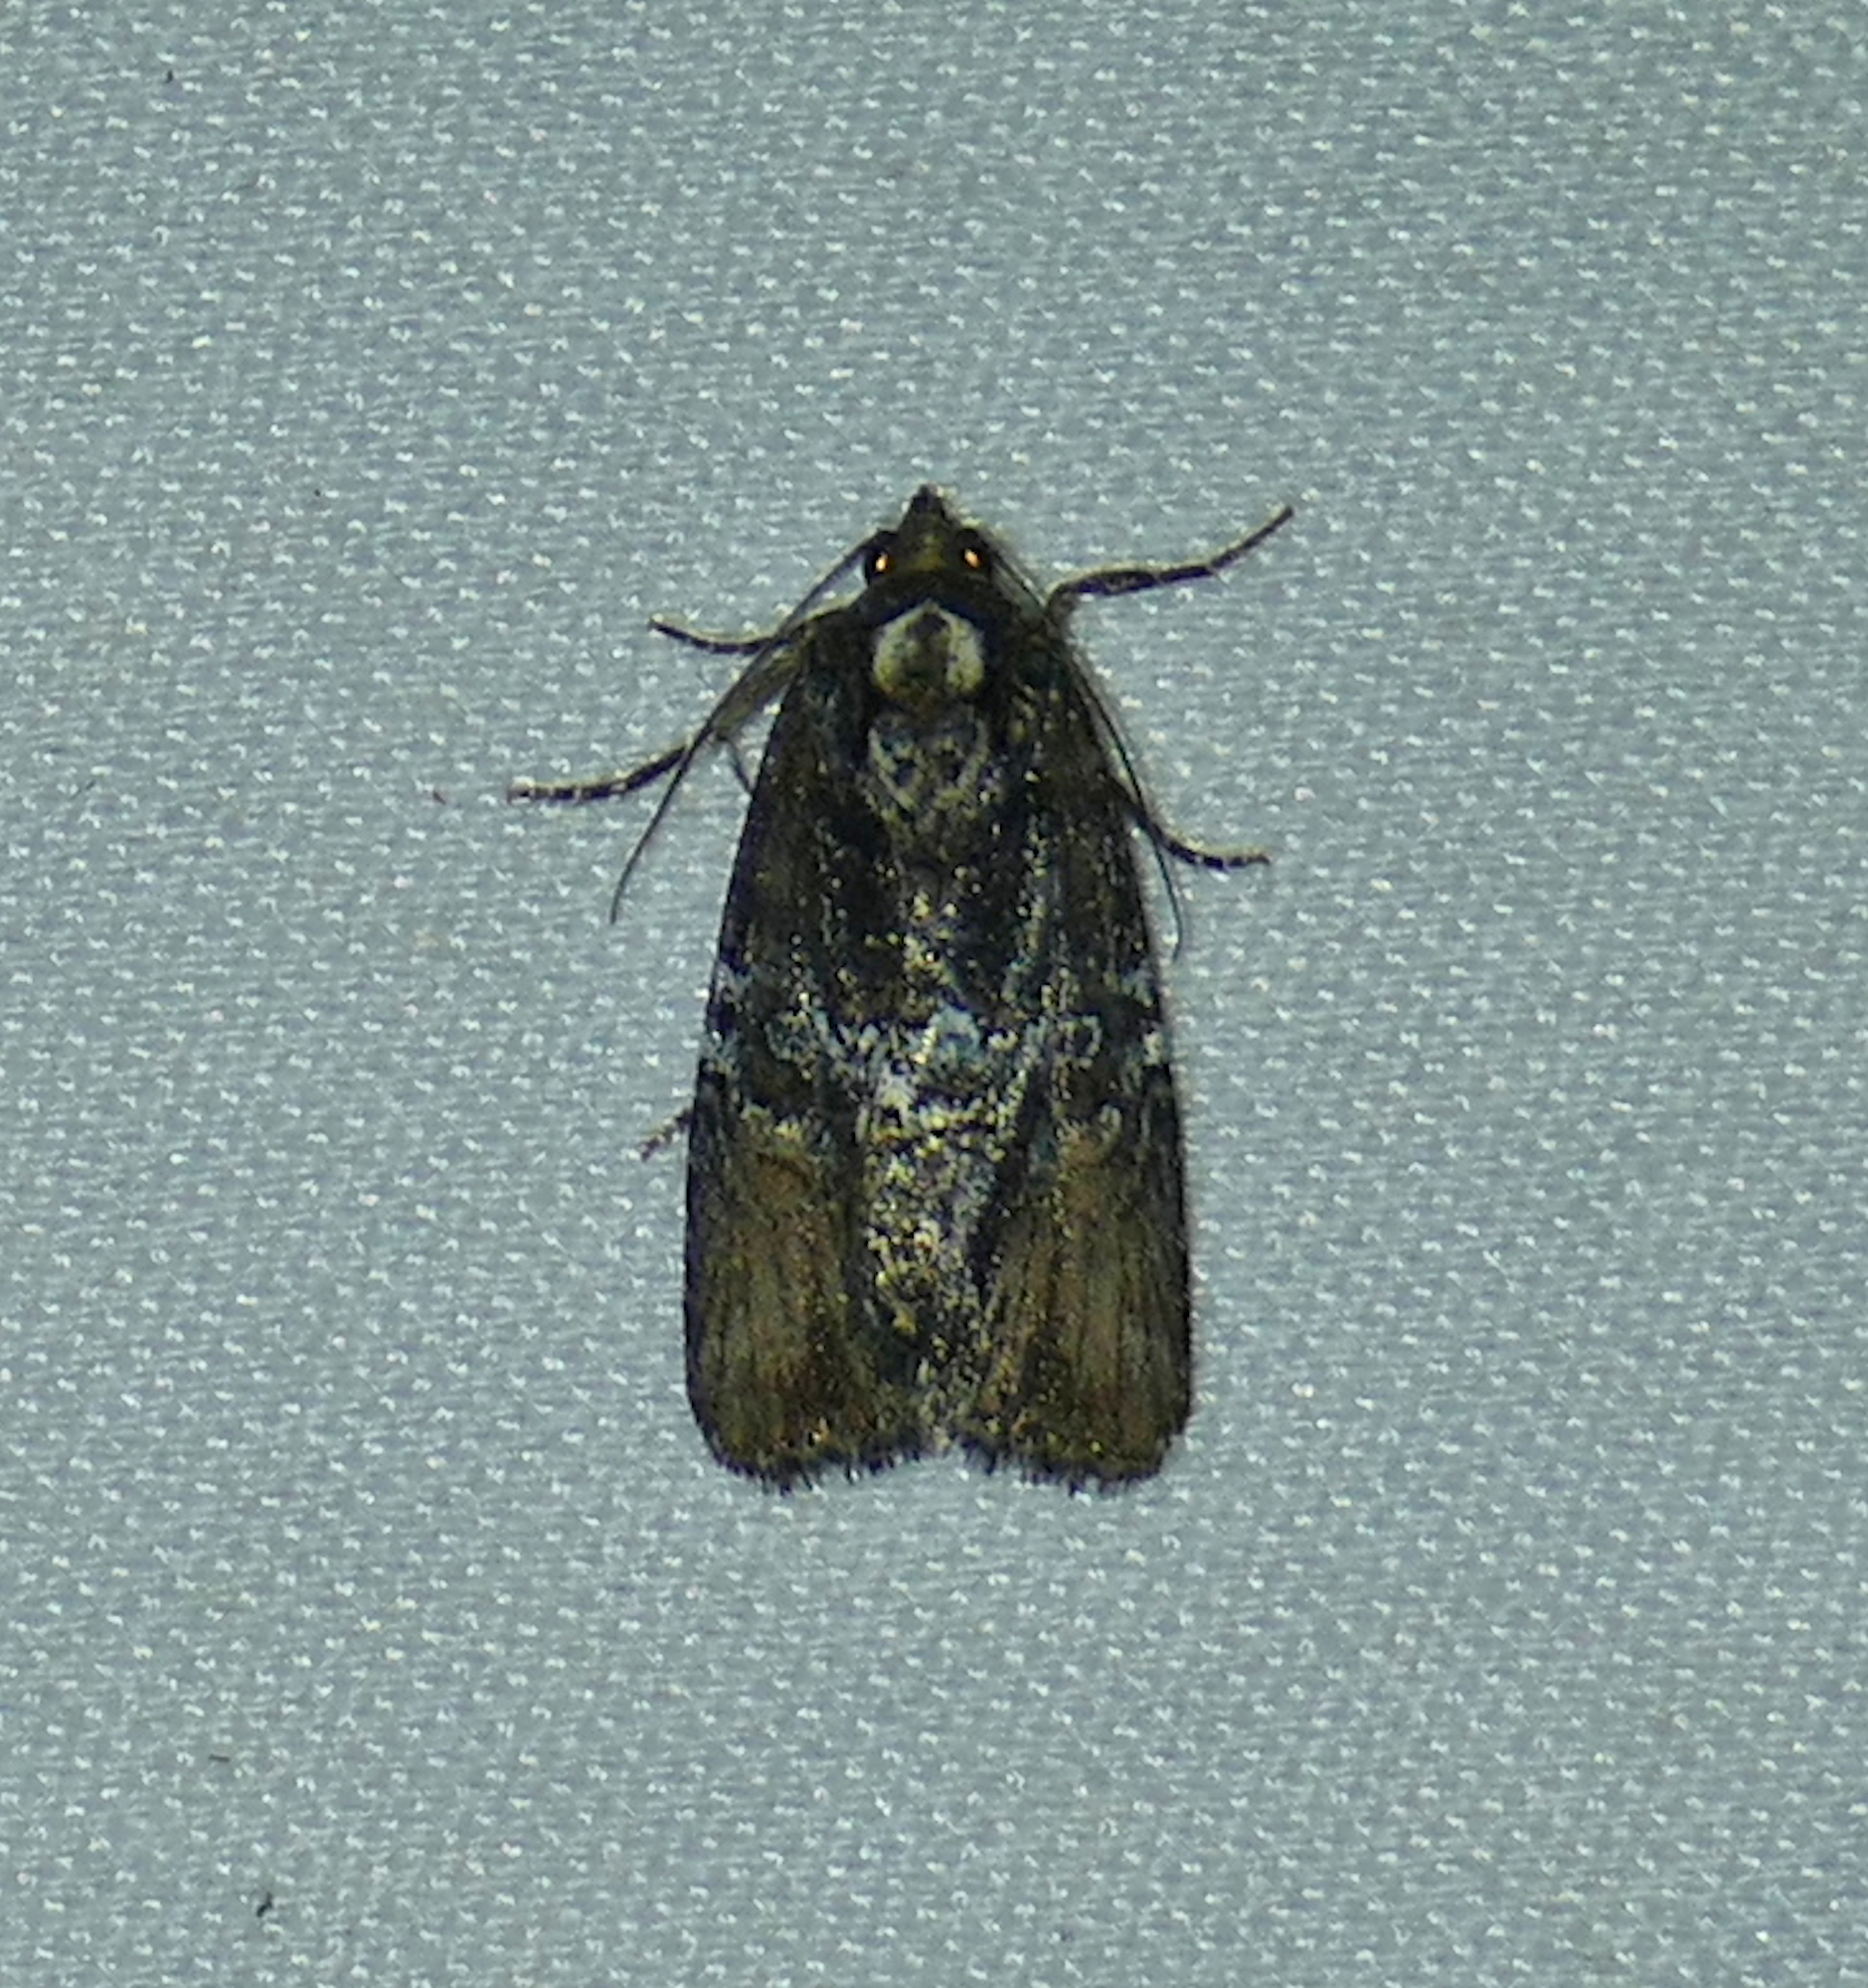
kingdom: Animalia
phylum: Arthropoda
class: Insecta
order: Lepidoptera
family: Noctuidae
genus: Bryolymnia
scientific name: Bryolymnia semifascia
